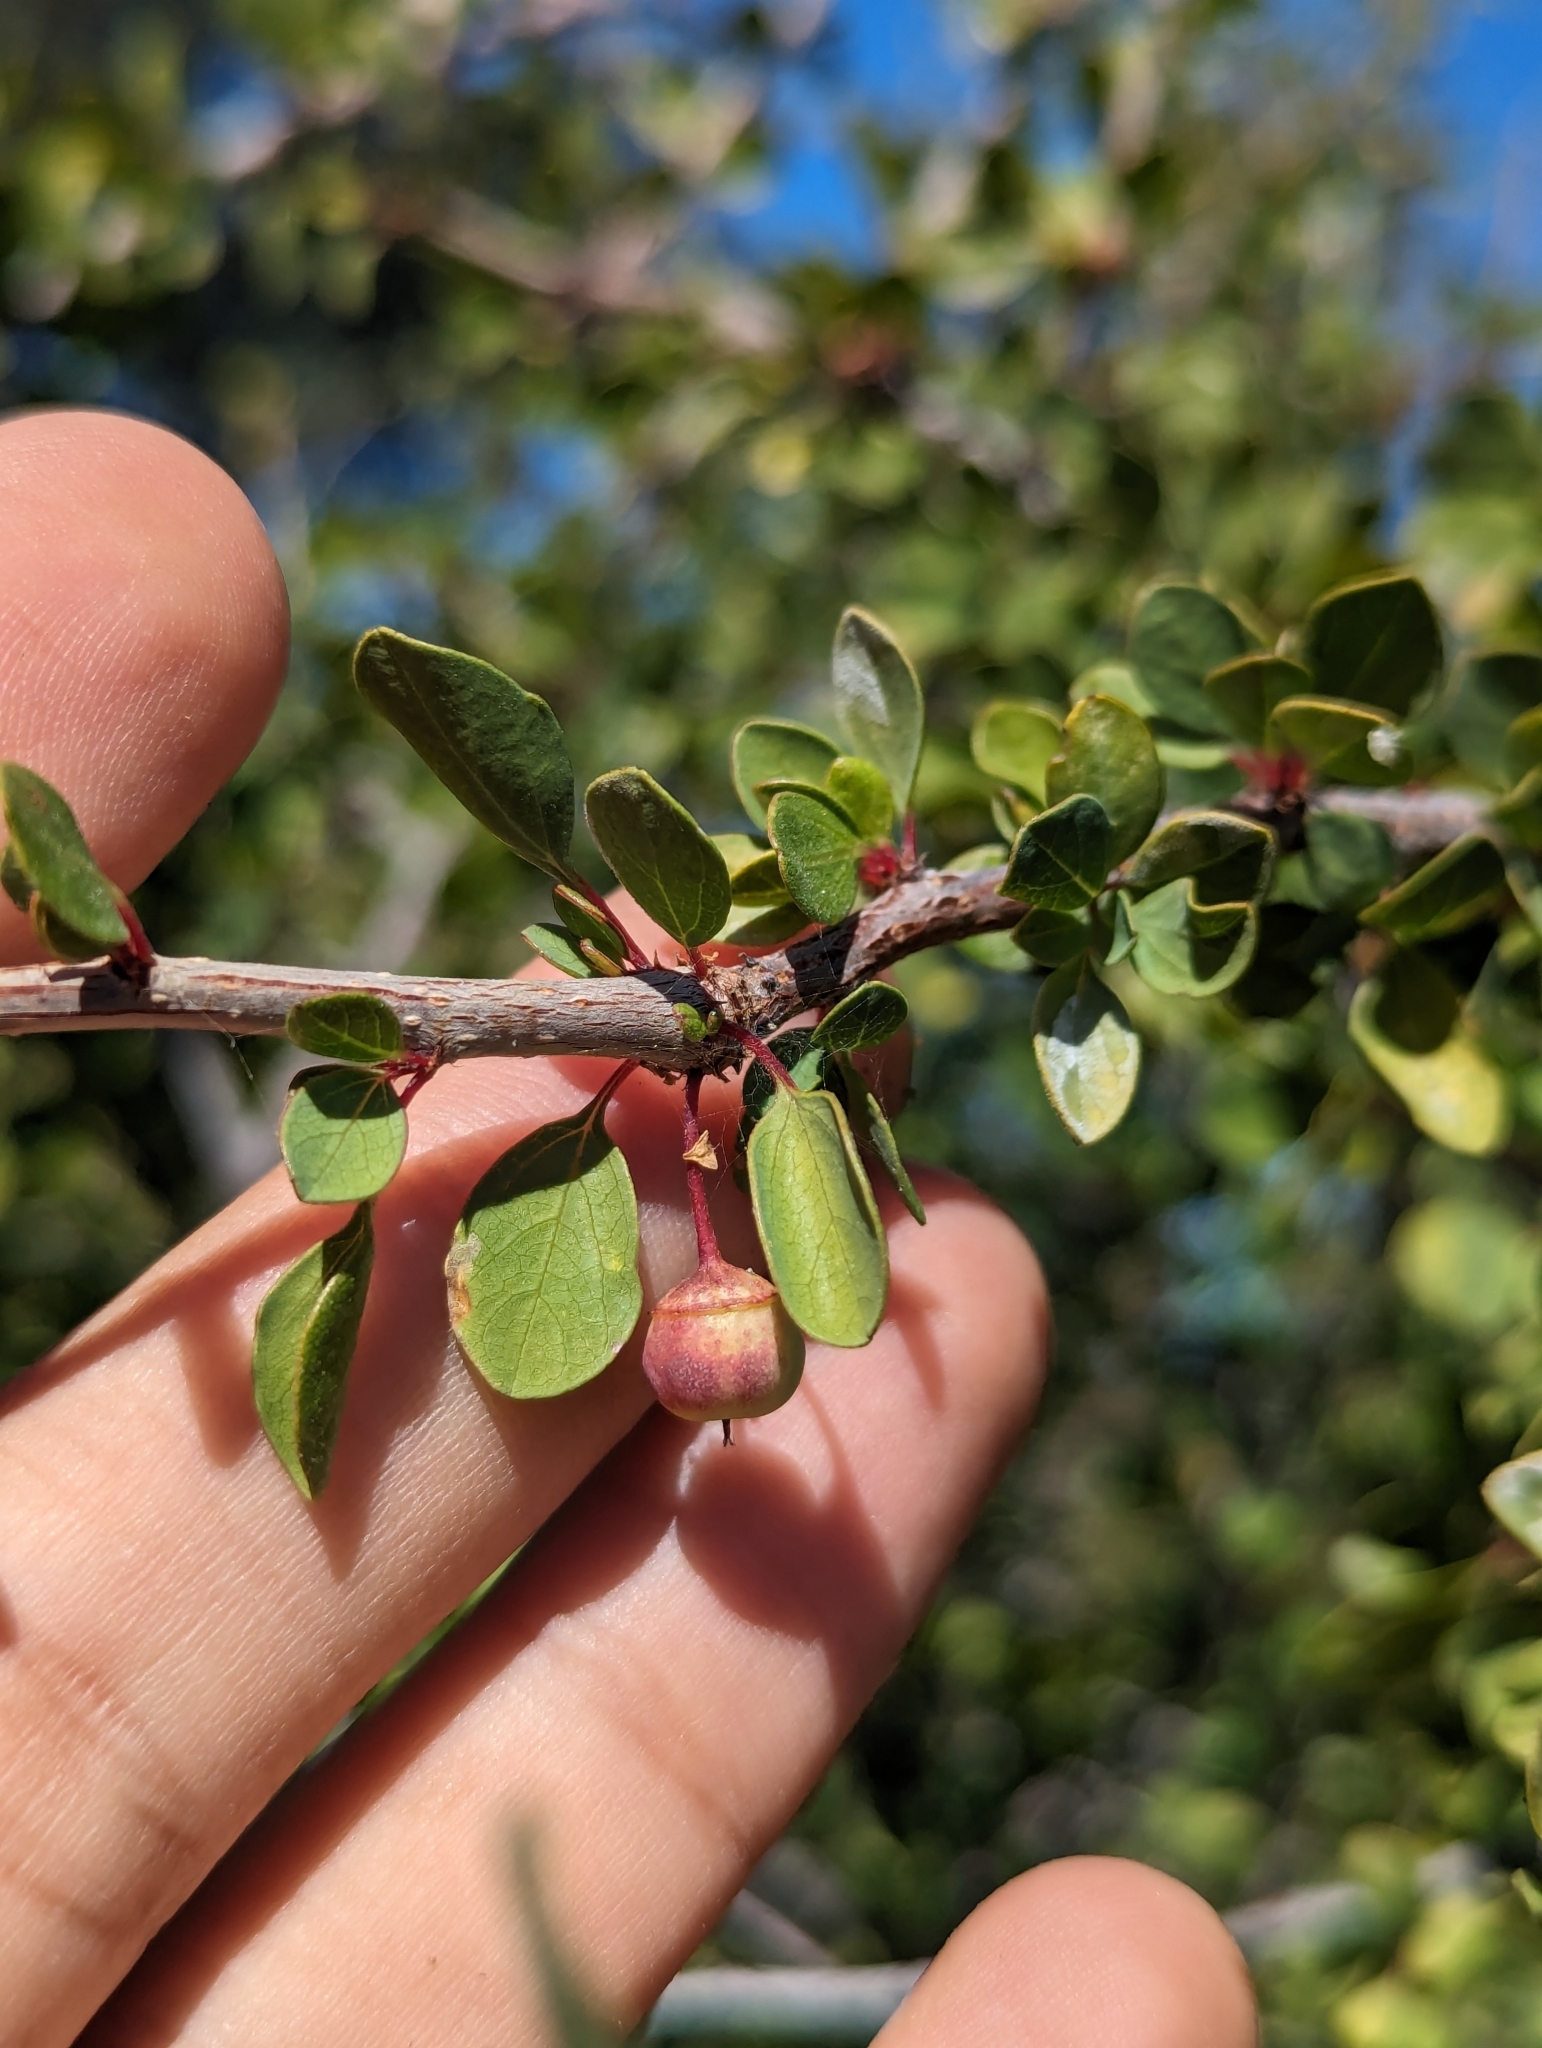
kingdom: Plantae
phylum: Tracheophyta
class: Magnoliopsida
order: Rosales
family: Rhamnaceae
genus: Colubrina
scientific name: Colubrina viridis
